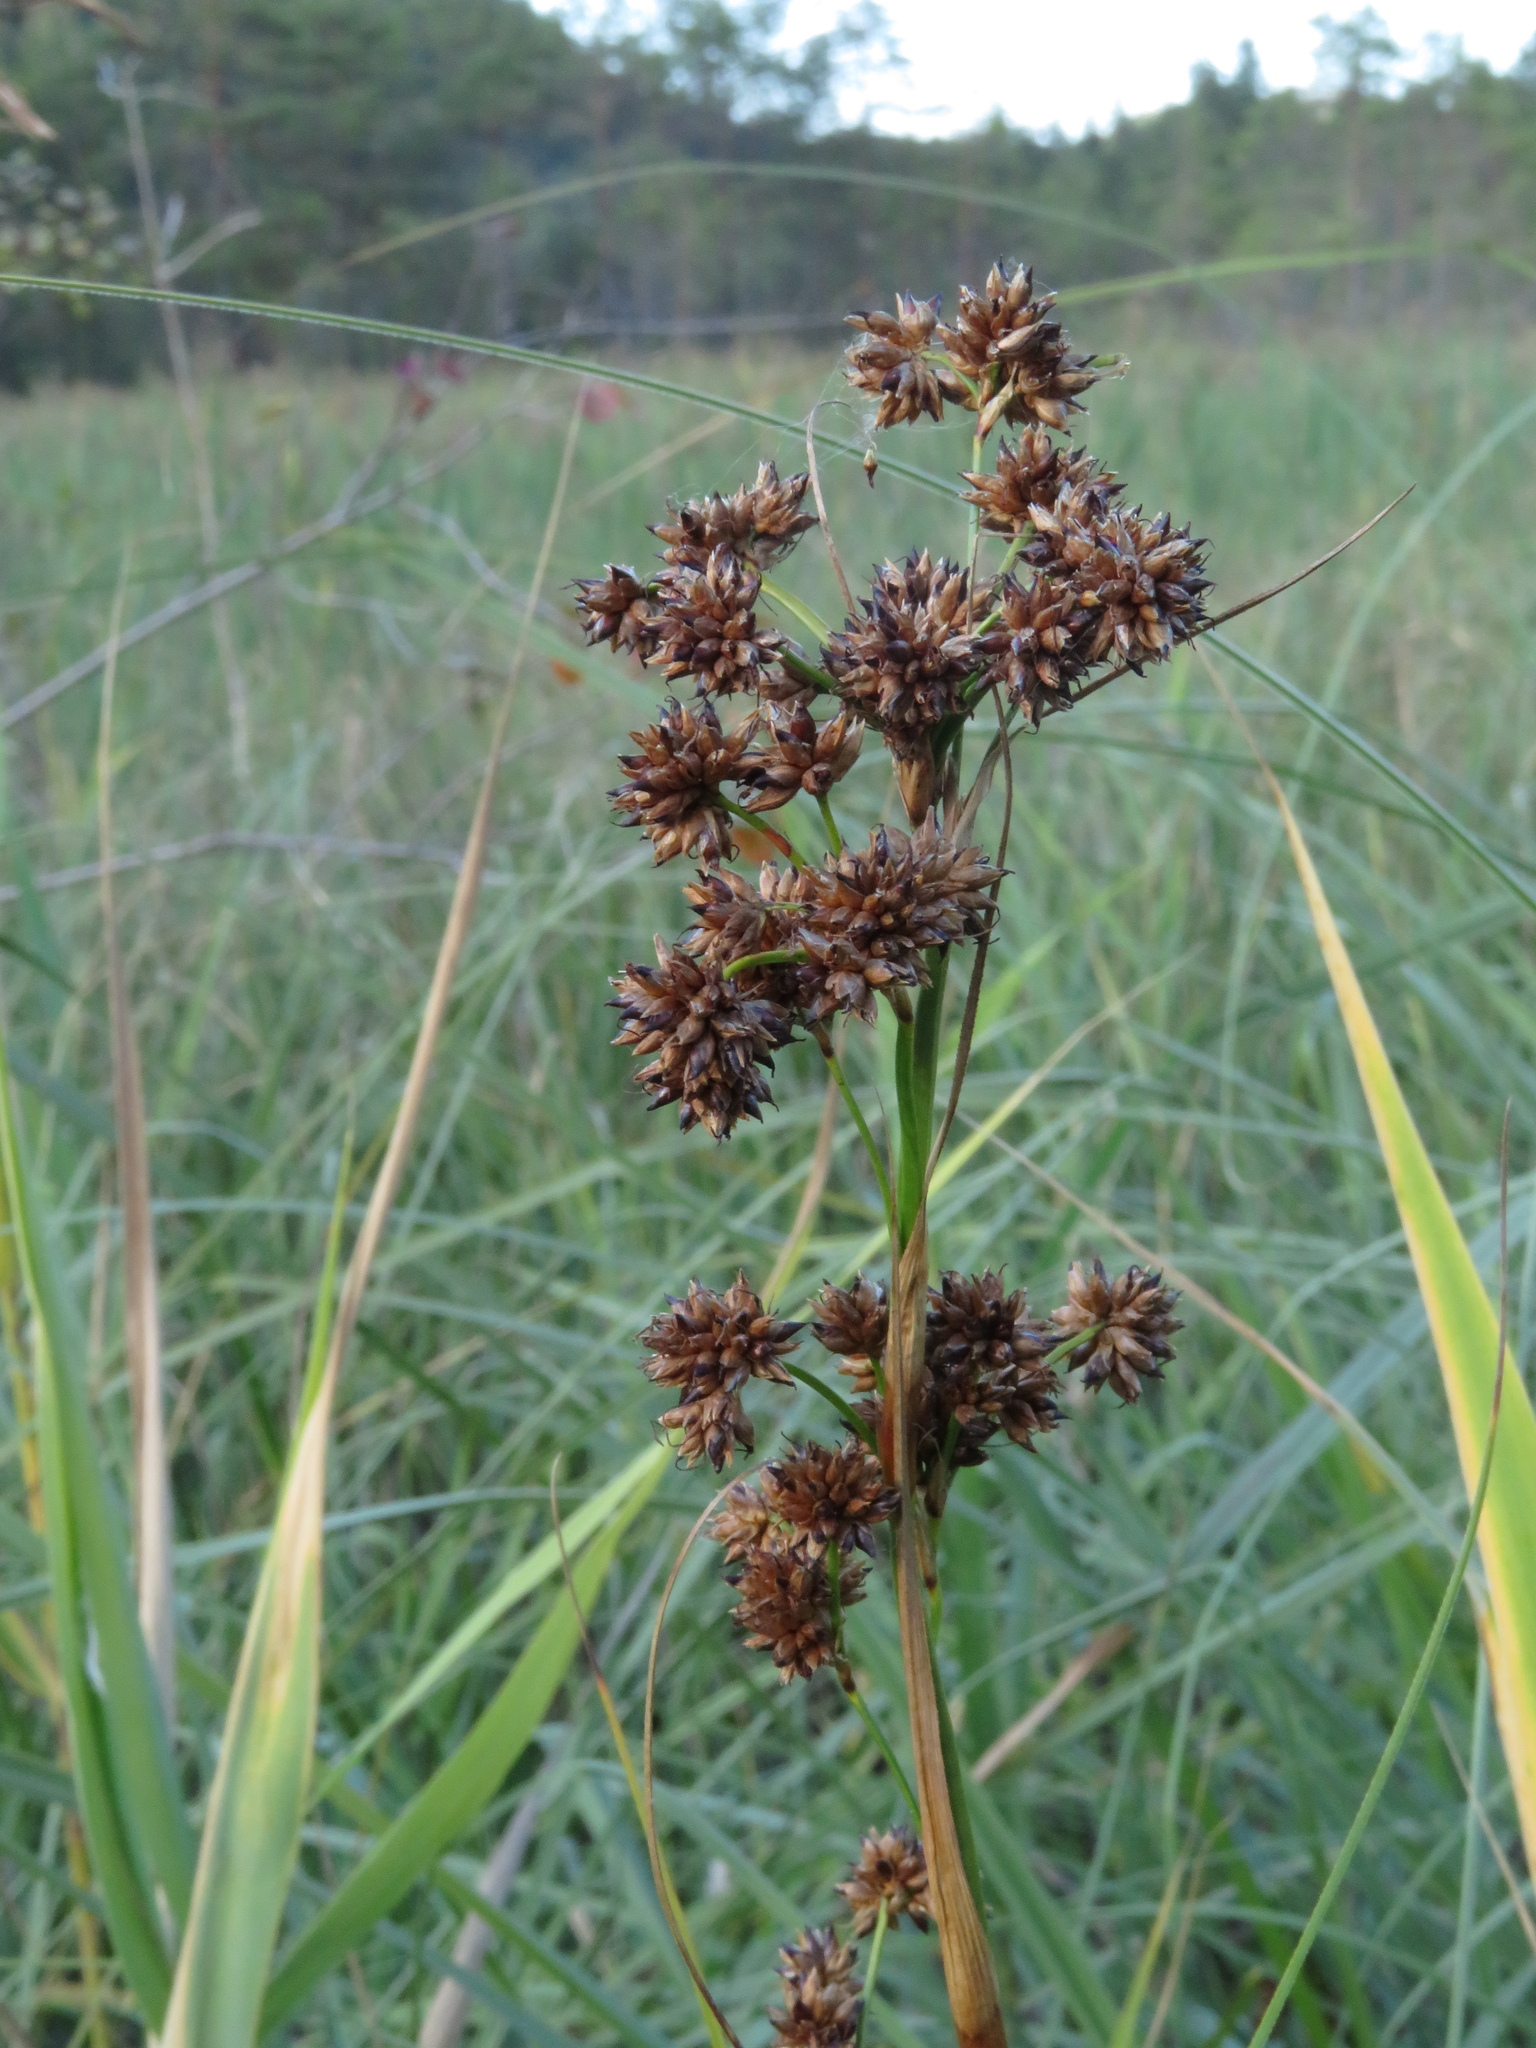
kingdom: Plantae
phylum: Tracheophyta
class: Liliopsida
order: Poales
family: Cyperaceae
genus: Cladium
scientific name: Cladium mariscus
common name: Great fen-sedge
